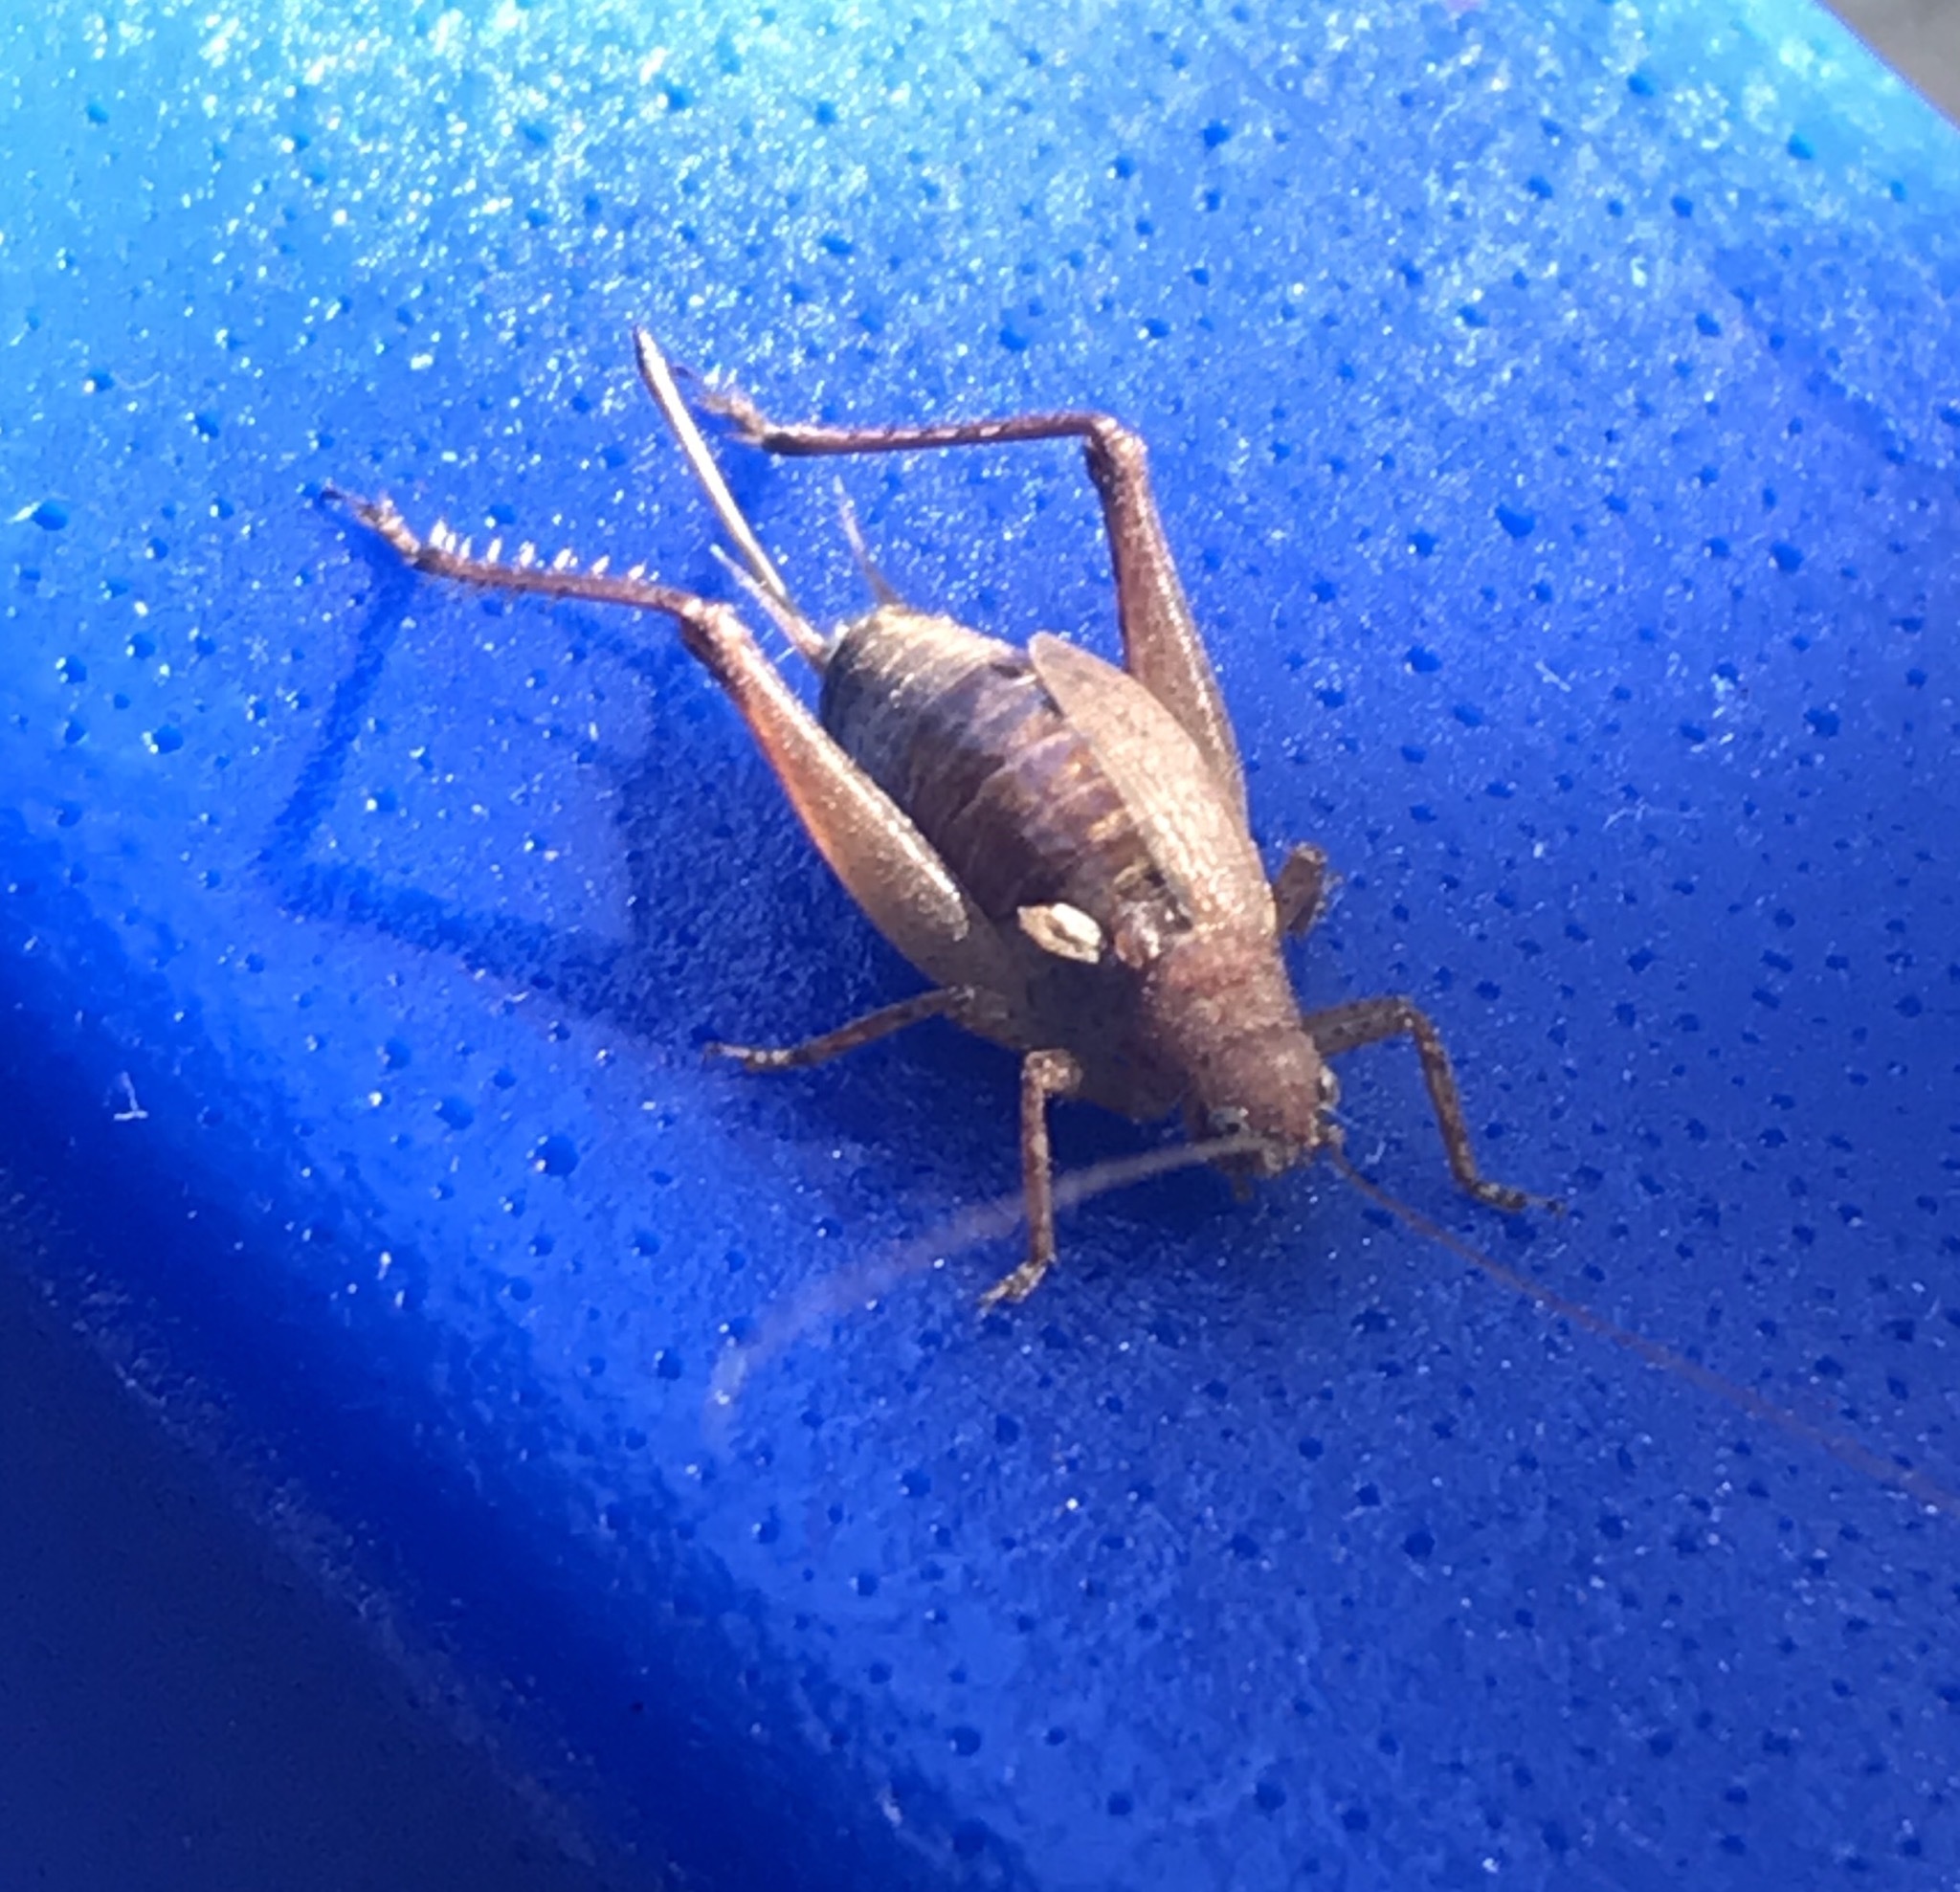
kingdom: Animalia
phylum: Arthropoda
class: Insecta
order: Orthoptera
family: Gryllidae
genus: Hapithus
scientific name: Hapithus agitator
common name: Restless bush cricket
